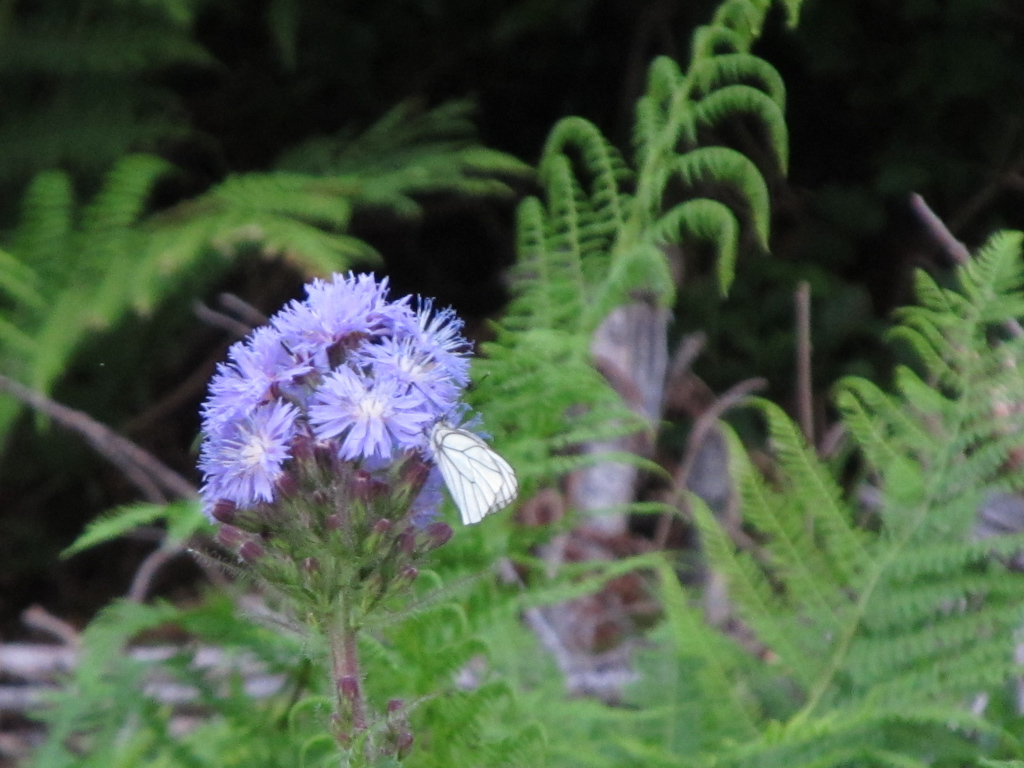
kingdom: Animalia
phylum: Arthropoda
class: Insecta
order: Lepidoptera
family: Pieridae
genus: Aporia
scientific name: Aporia crataegi
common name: Black-veined white
